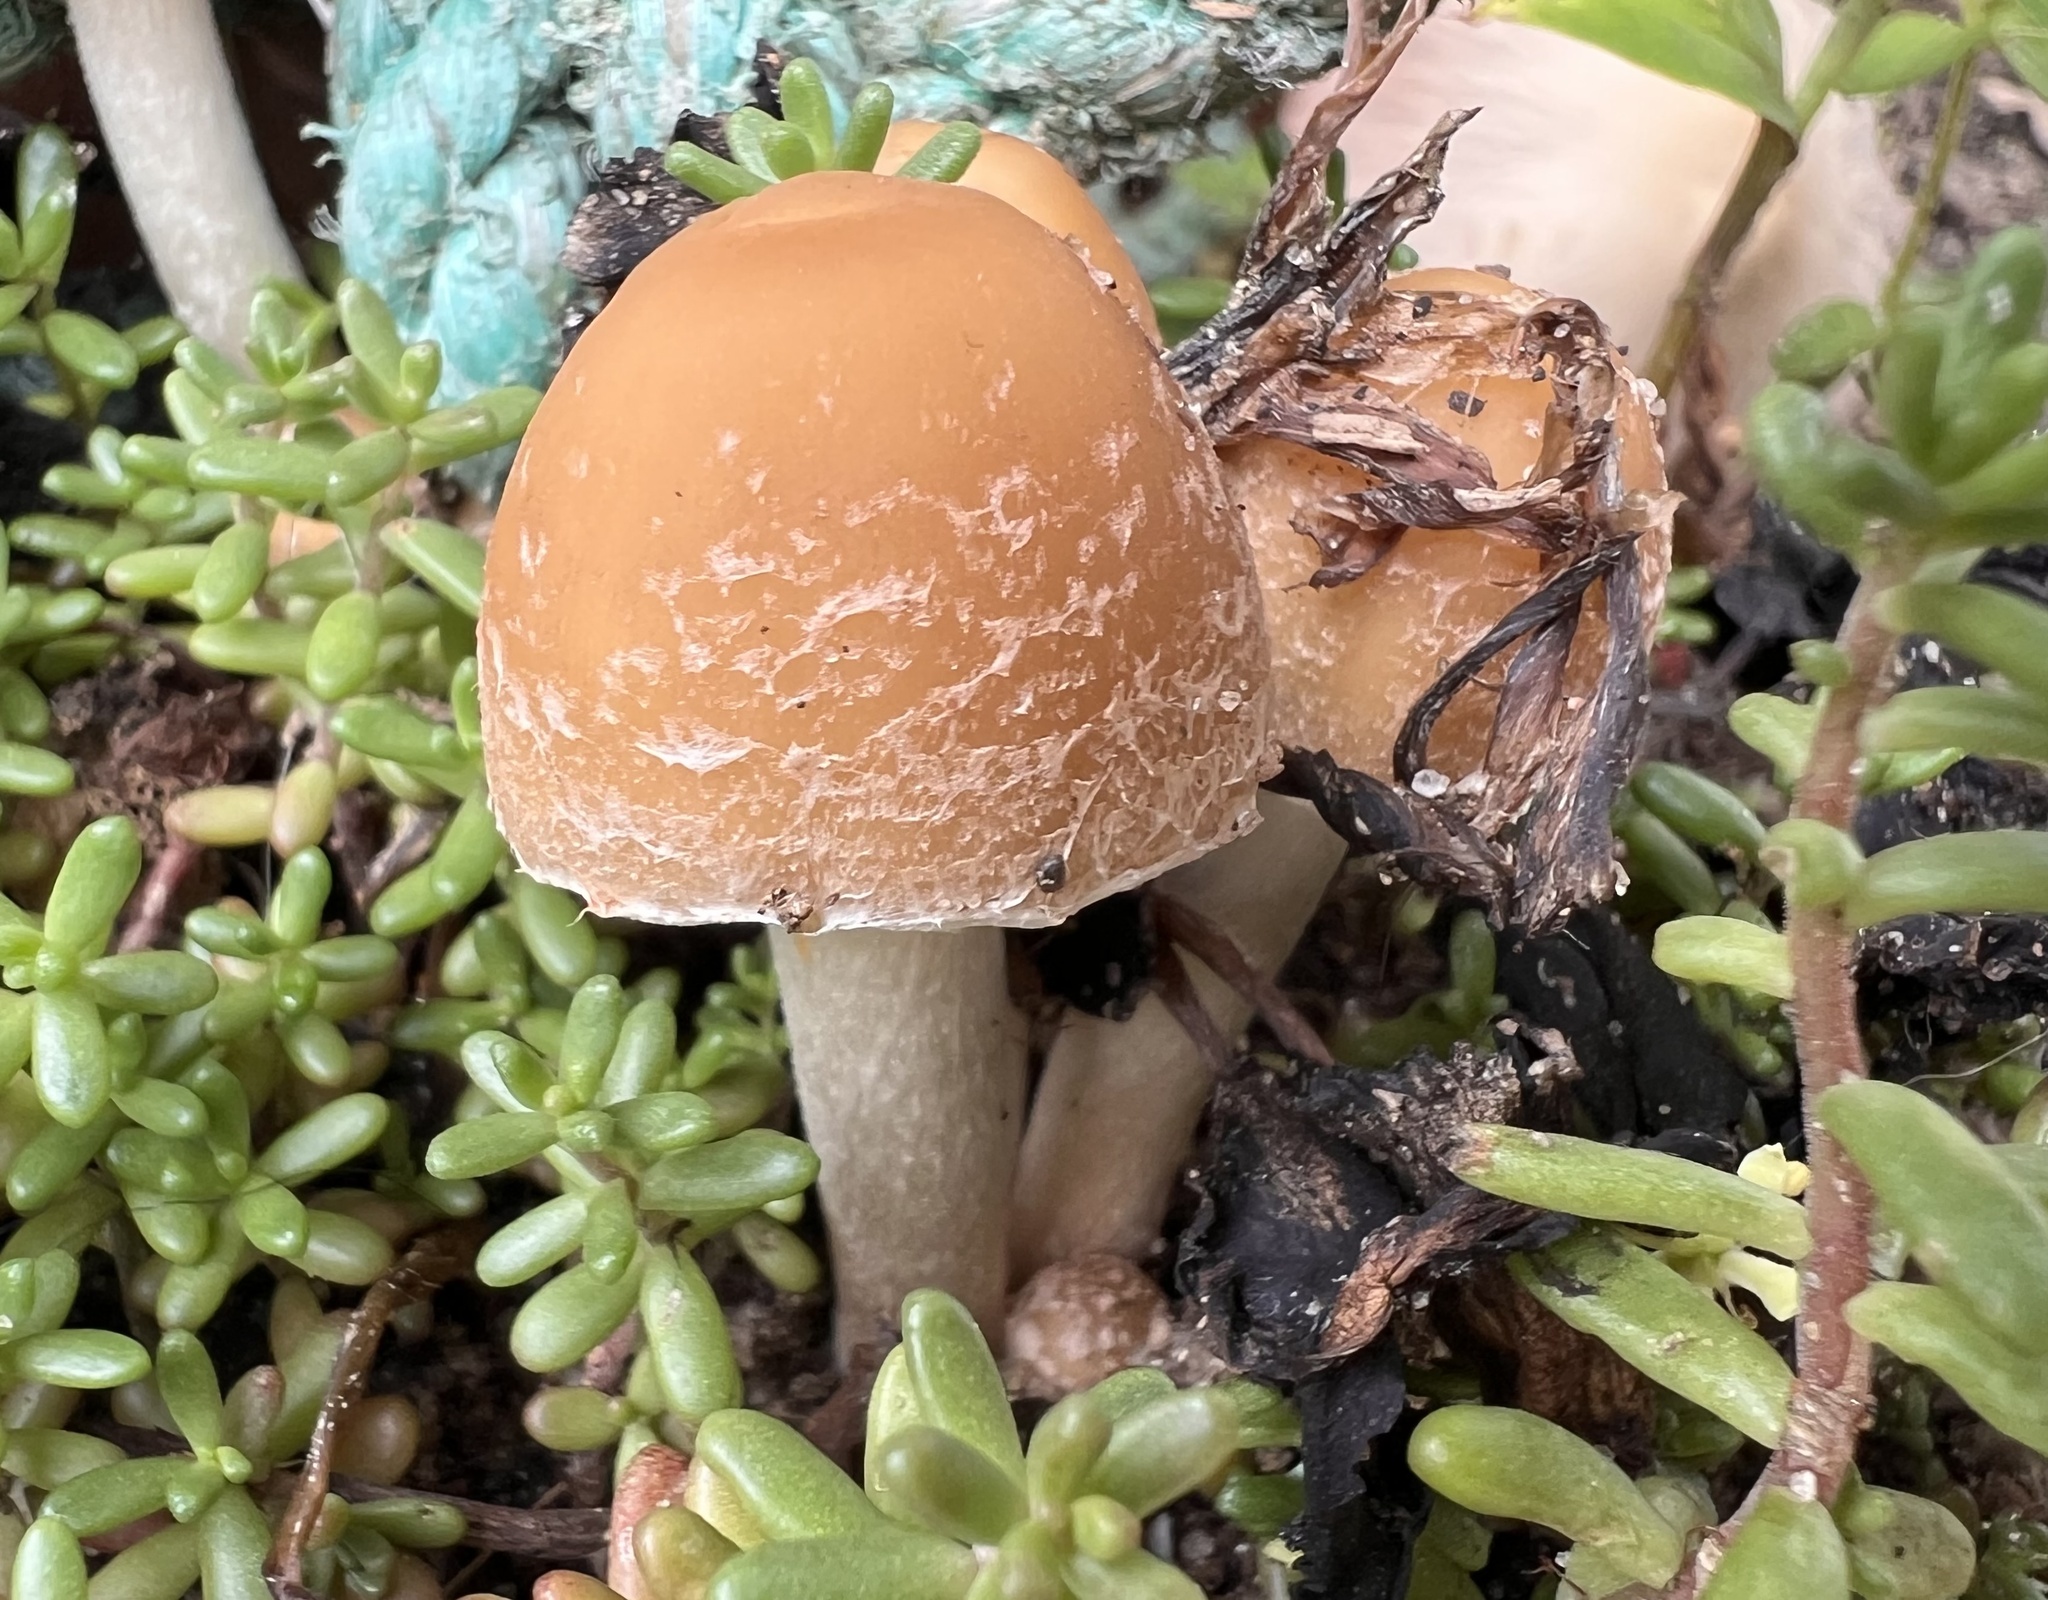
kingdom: Fungi
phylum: Basidiomycota
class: Agaricomycetes
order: Agaricales
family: Psathyrellaceae
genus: Candolleomyces
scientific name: Candolleomyces candolleanus
